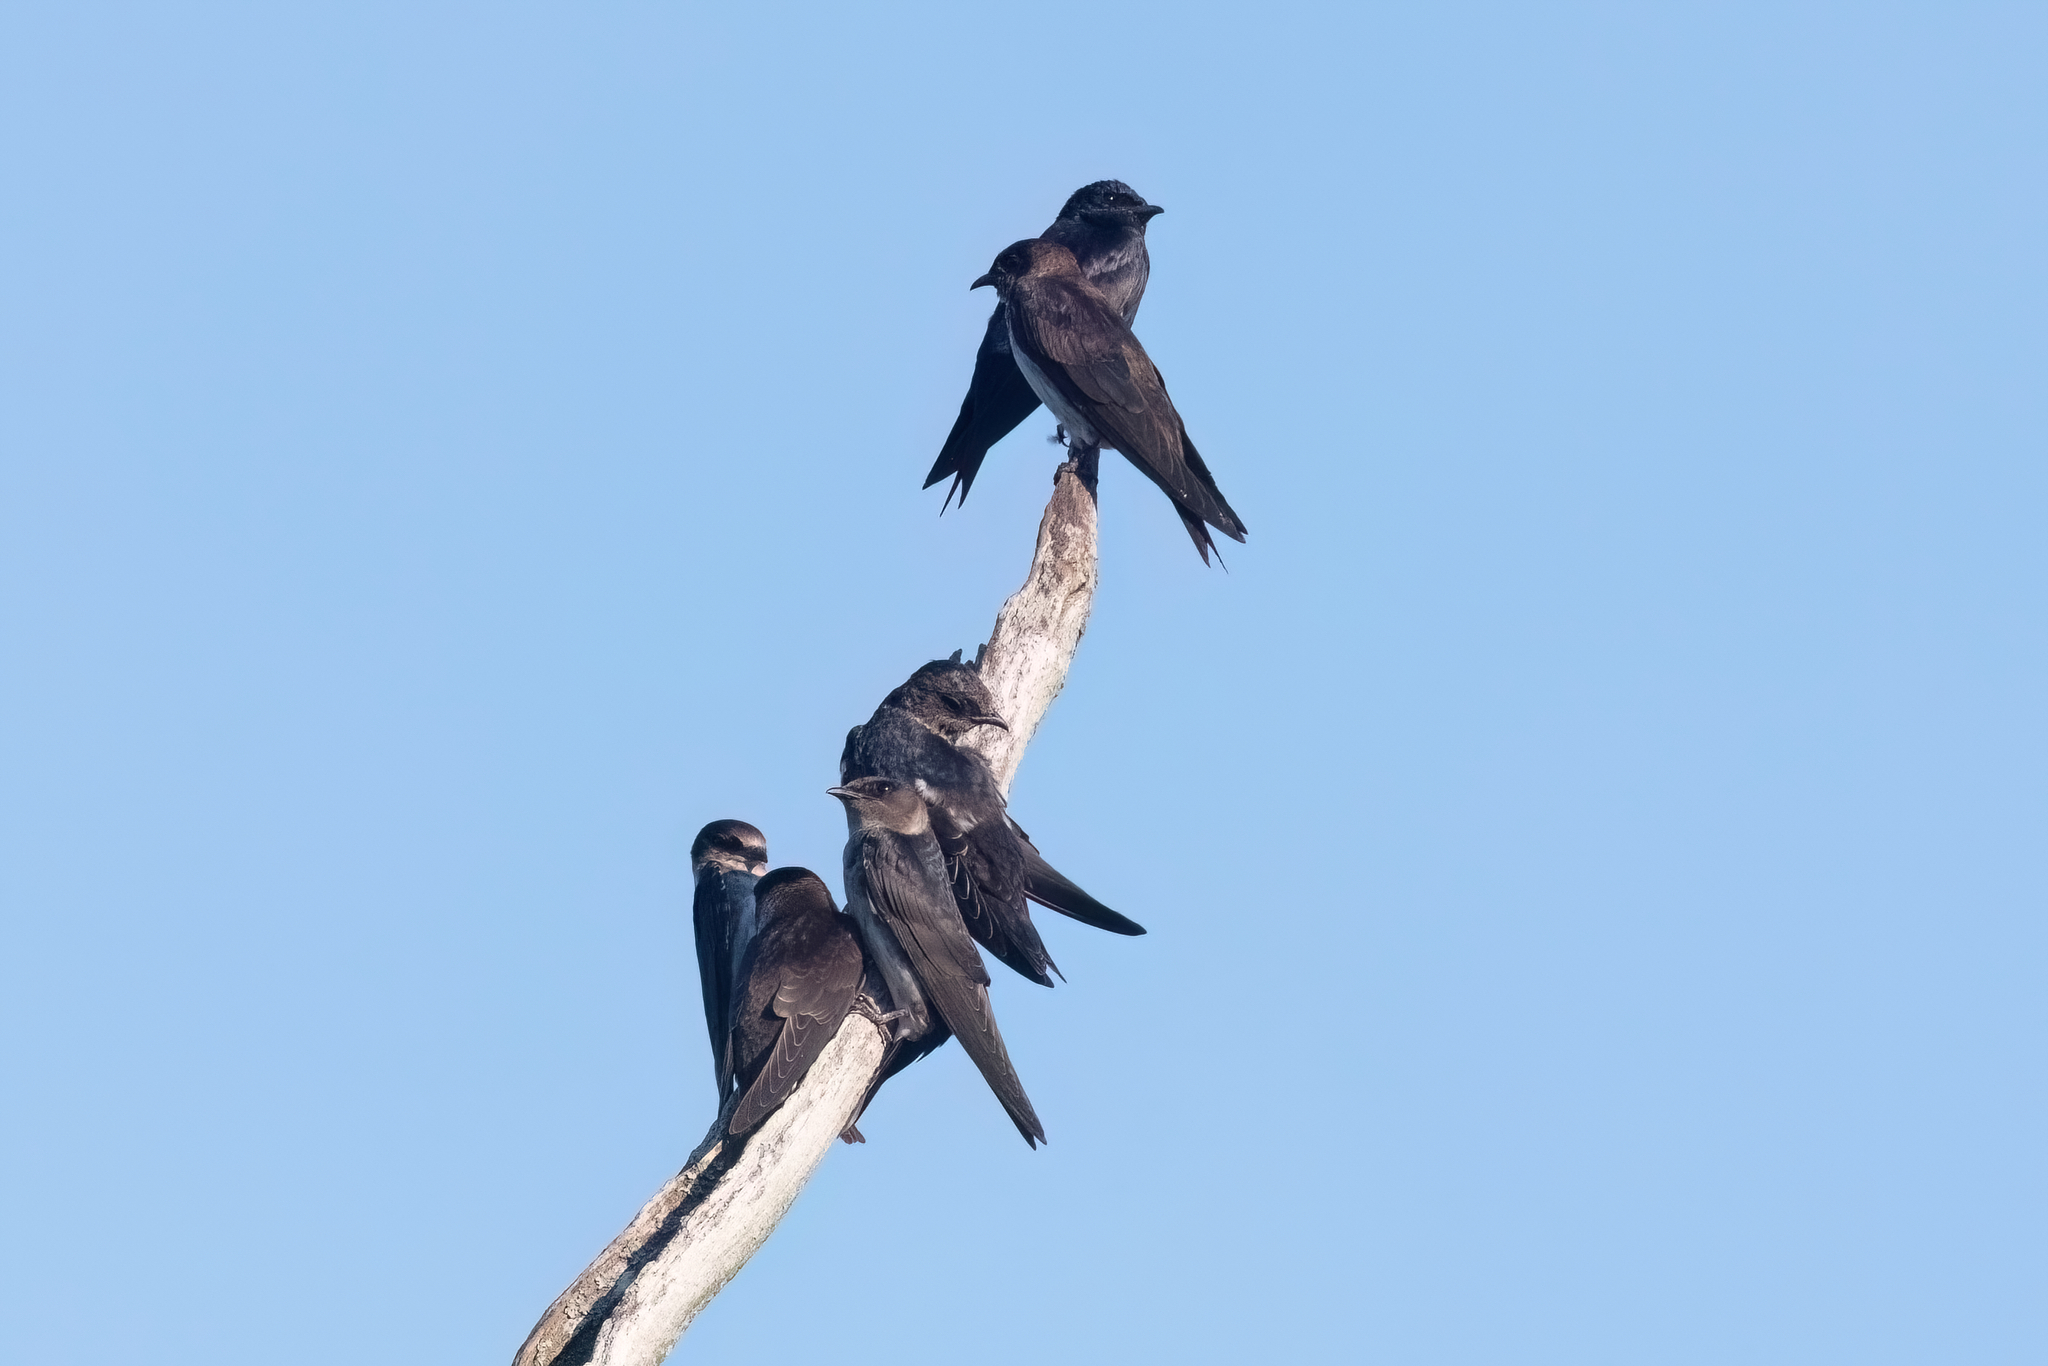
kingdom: Animalia
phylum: Chordata
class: Aves
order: Passeriformes
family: Hirundinidae
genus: Progne
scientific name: Progne subis
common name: Purple martin
